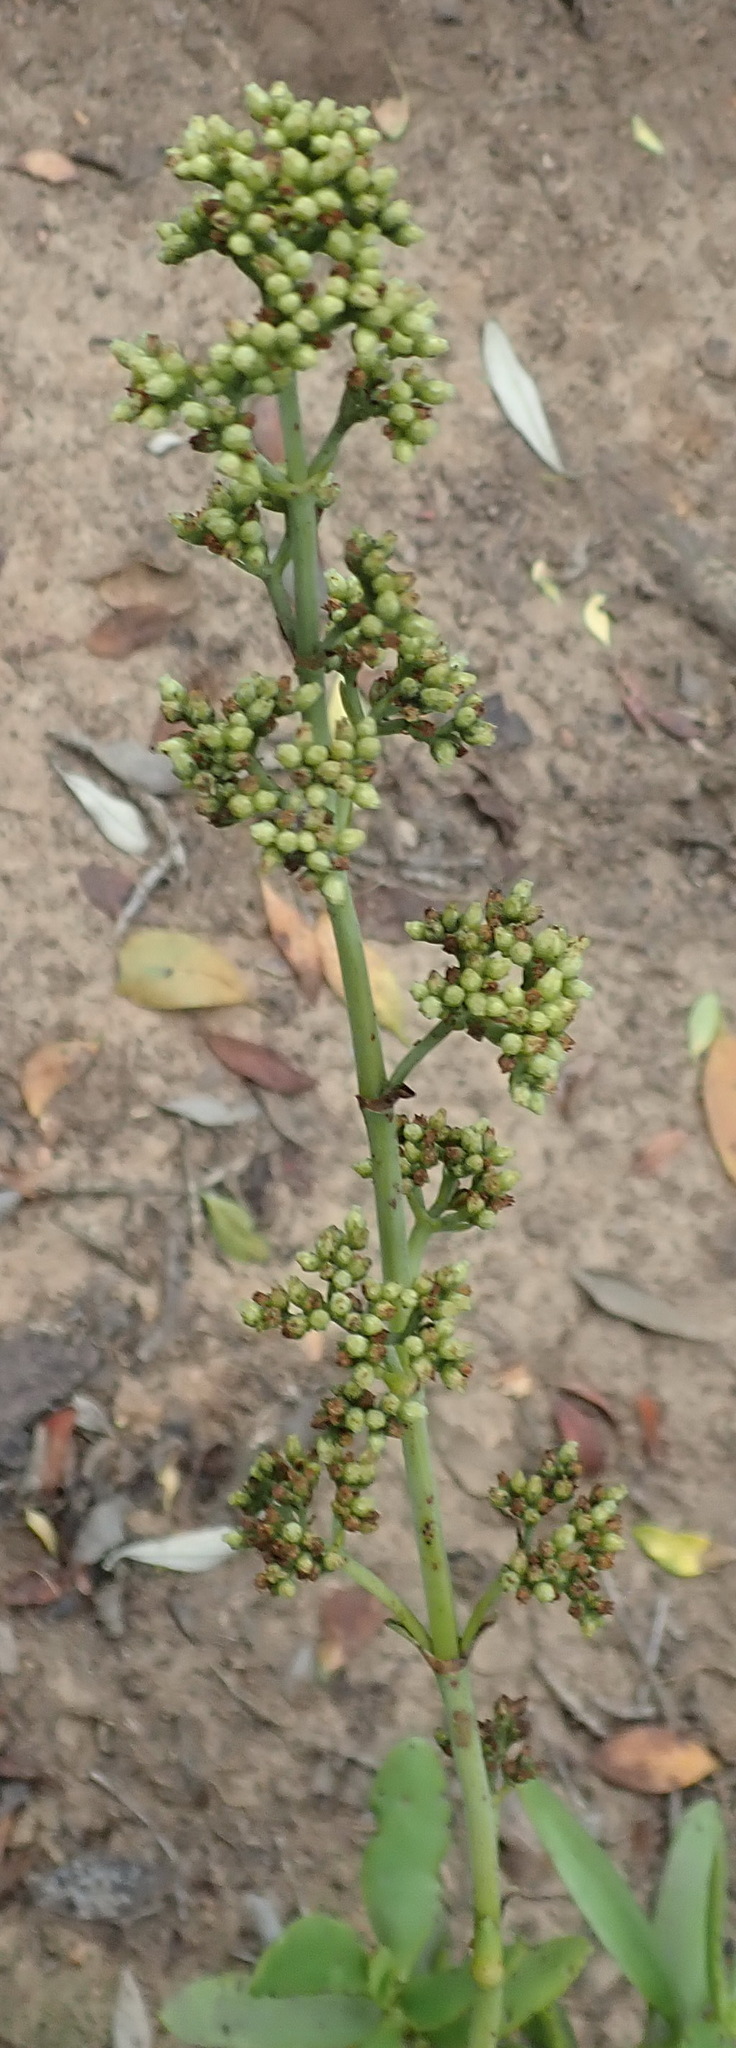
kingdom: Plantae
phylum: Tracheophyta
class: Magnoliopsida
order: Saxifragales
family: Crassulaceae
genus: Crassula
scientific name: Crassula cultrata
